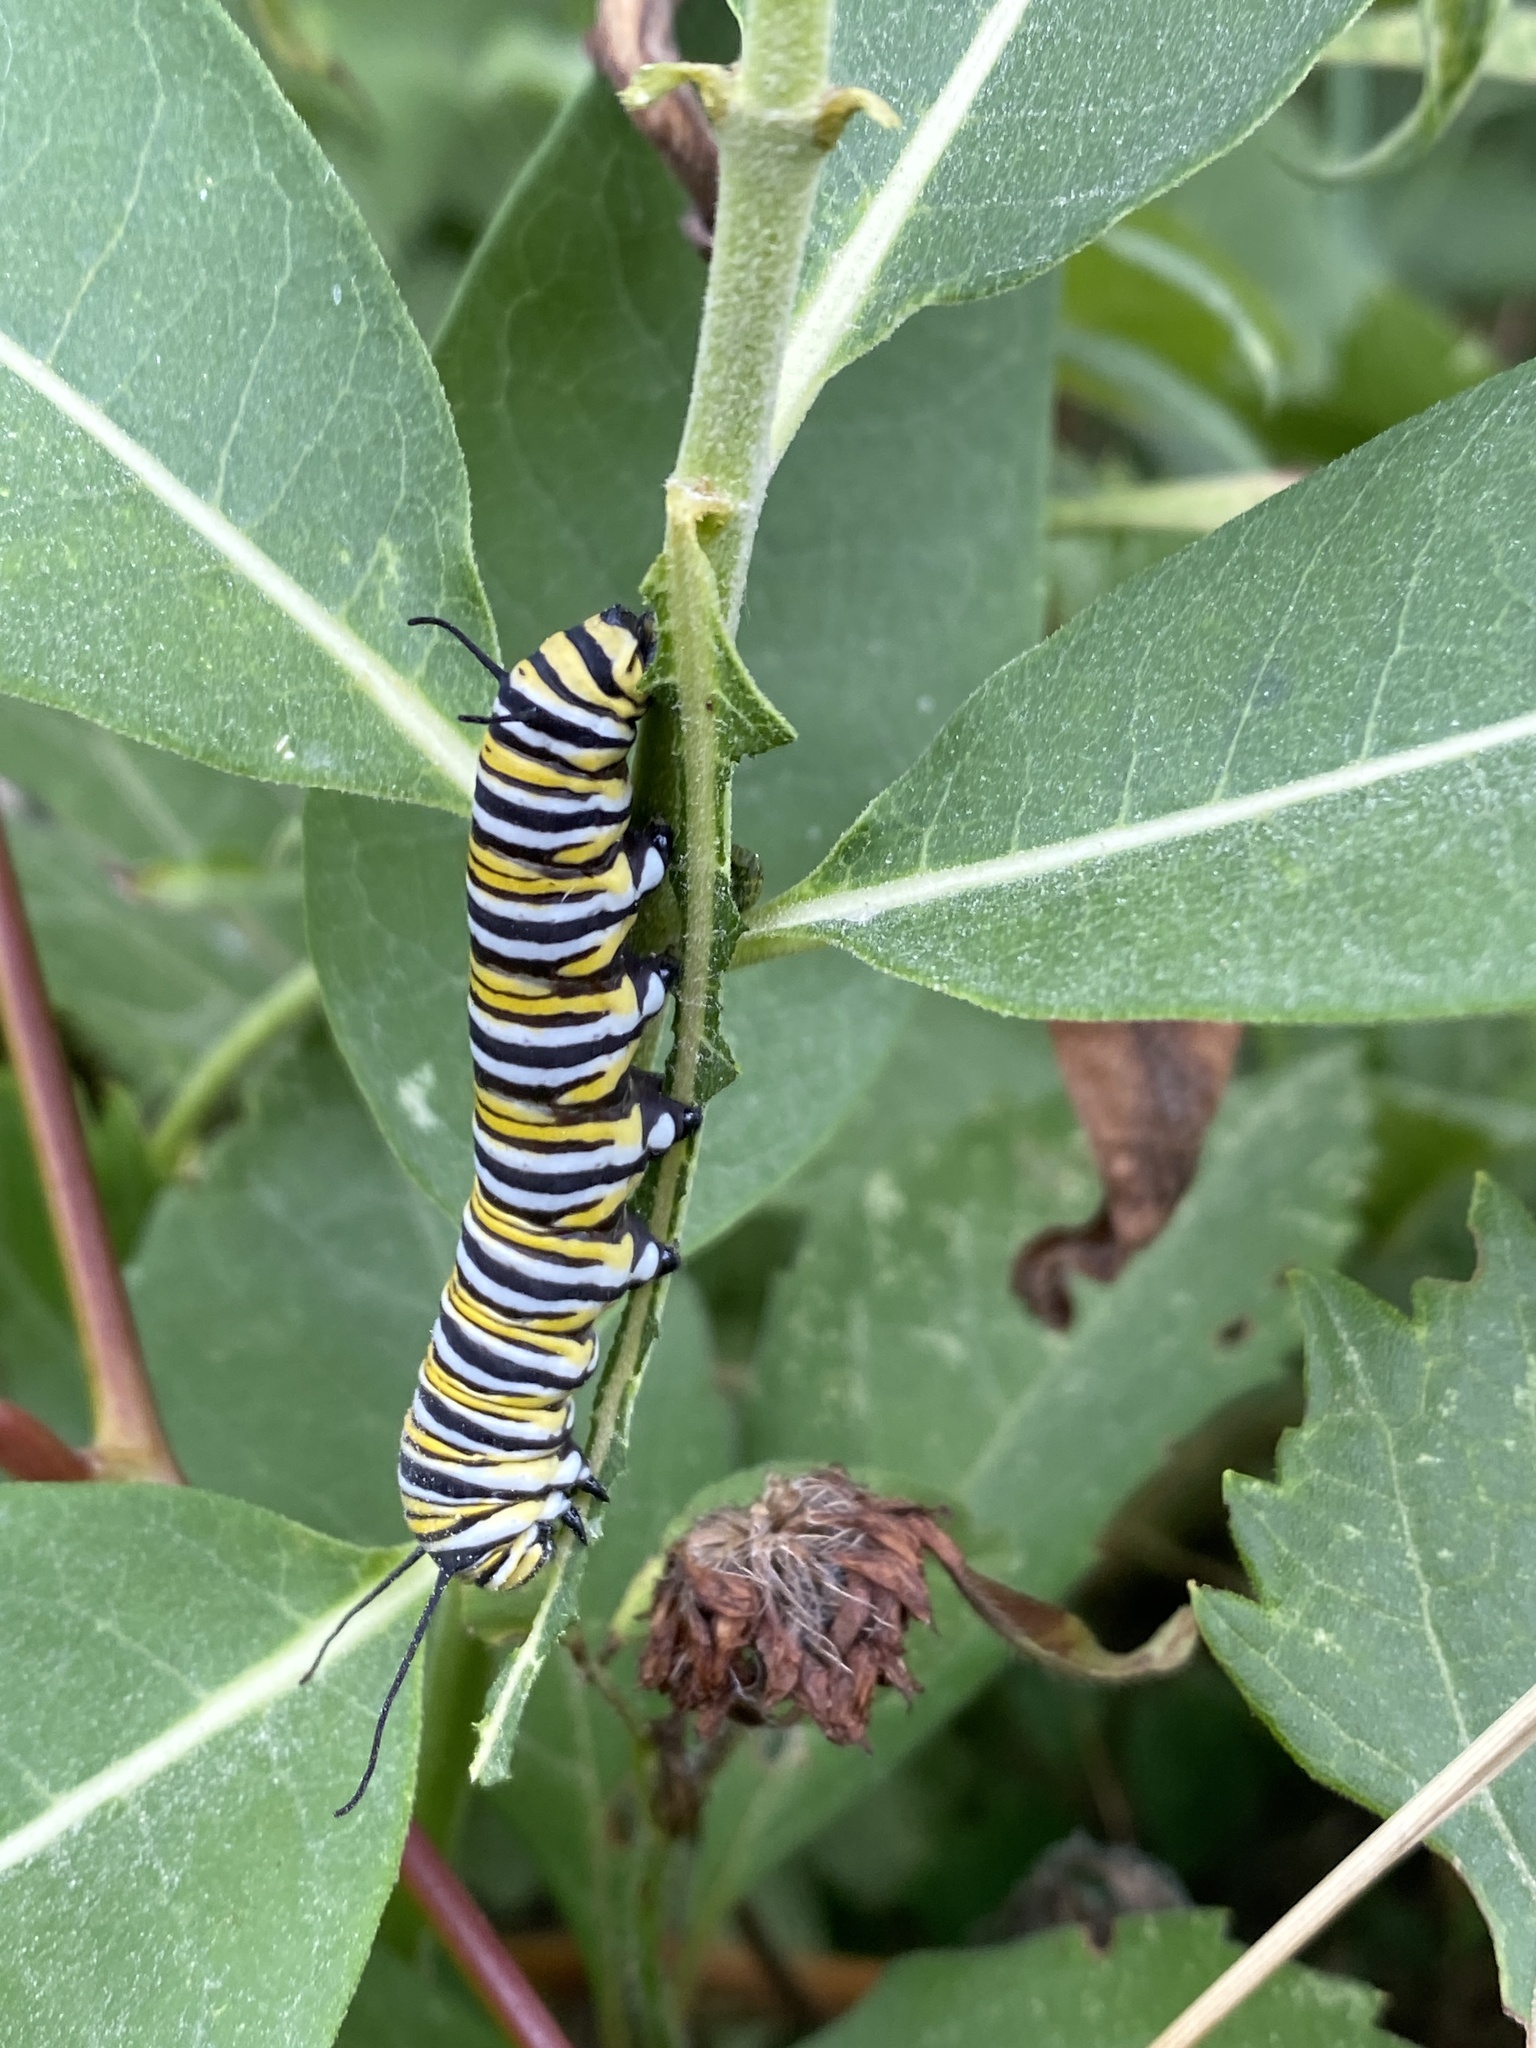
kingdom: Animalia
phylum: Arthropoda
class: Insecta
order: Lepidoptera
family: Nymphalidae
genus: Danaus
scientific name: Danaus plexippus
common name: Monarch
